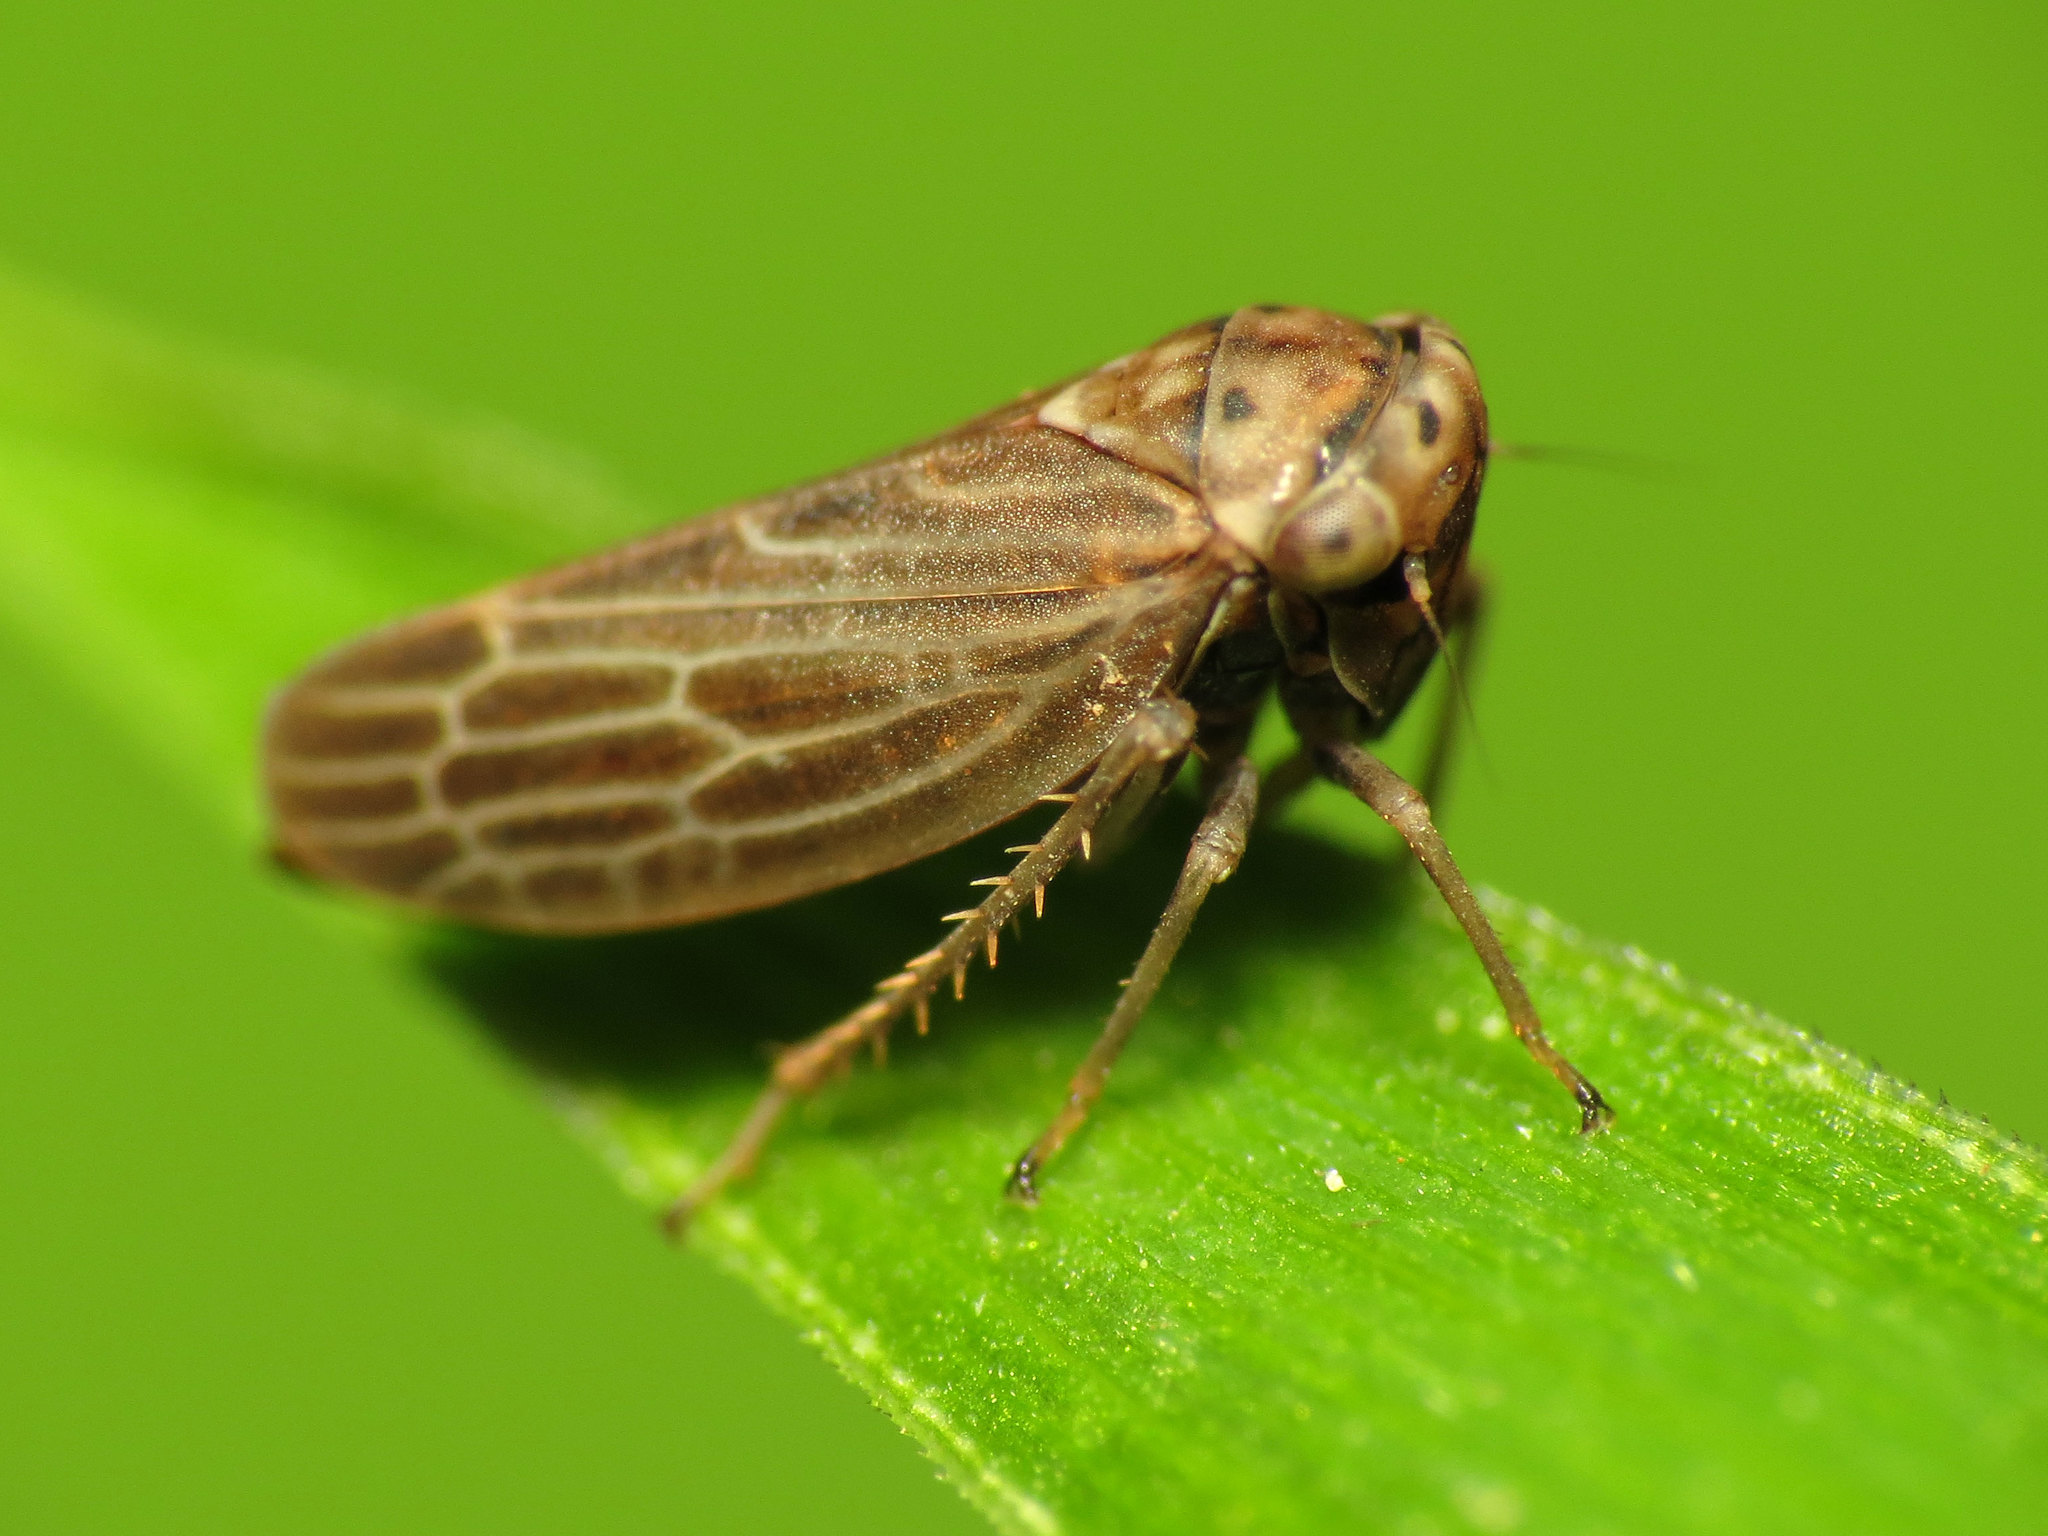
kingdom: Animalia
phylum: Arthropoda
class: Insecta
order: Hemiptera
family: Cicadellidae
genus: Agalliota
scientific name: Agalliota quadripunctata
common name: The four-spotted clover leafhopper
